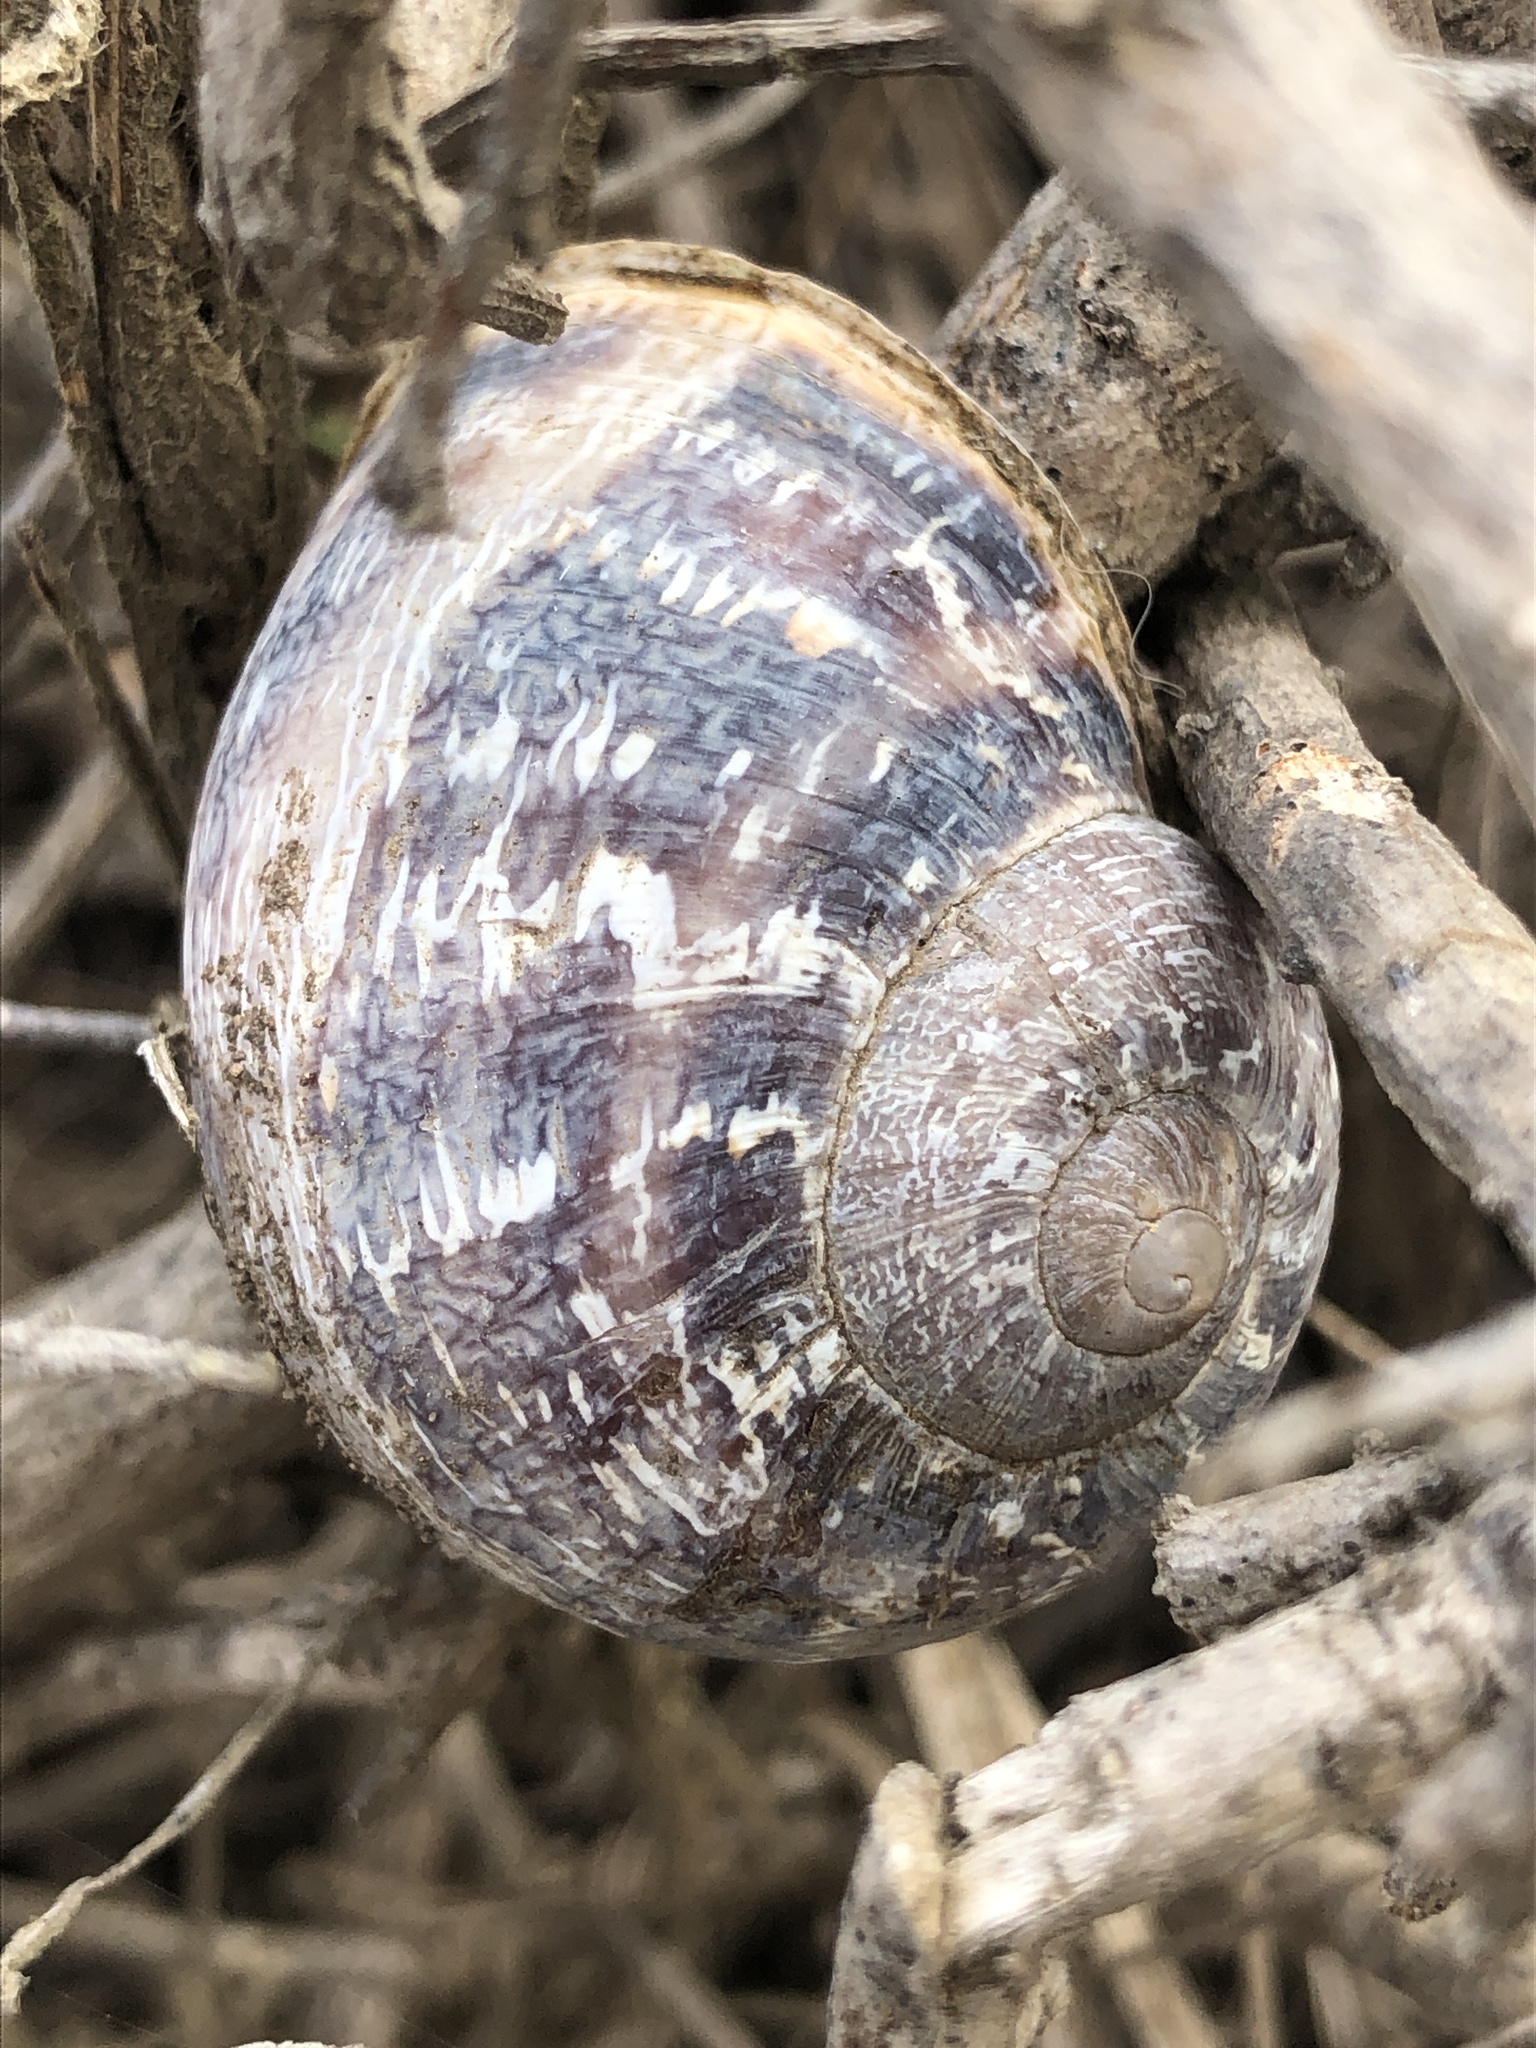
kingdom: Animalia
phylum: Mollusca
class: Gastropoda
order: Stylommatophora
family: Helicidae
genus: Cornu
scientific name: Cornu aspersum
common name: Brown garden snail
